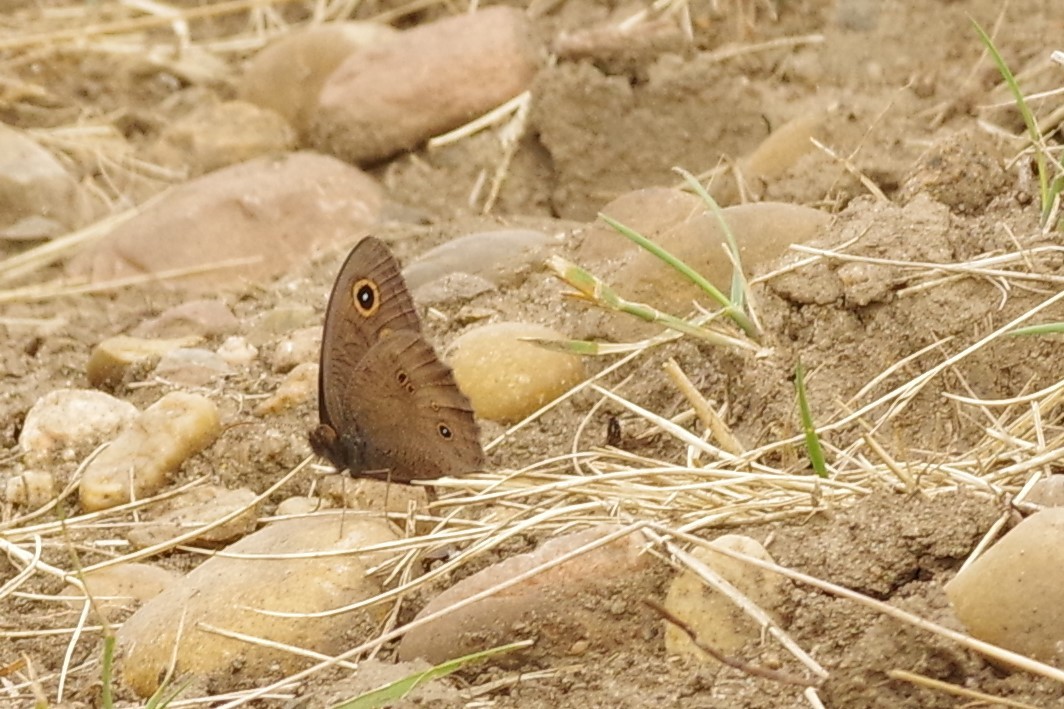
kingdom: Animalia
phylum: Arthropoda
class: Insecta
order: Lepidoptera
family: Nymphalidae
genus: Cercyonis
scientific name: Cercyonis pegala
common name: Common wood-nymph
